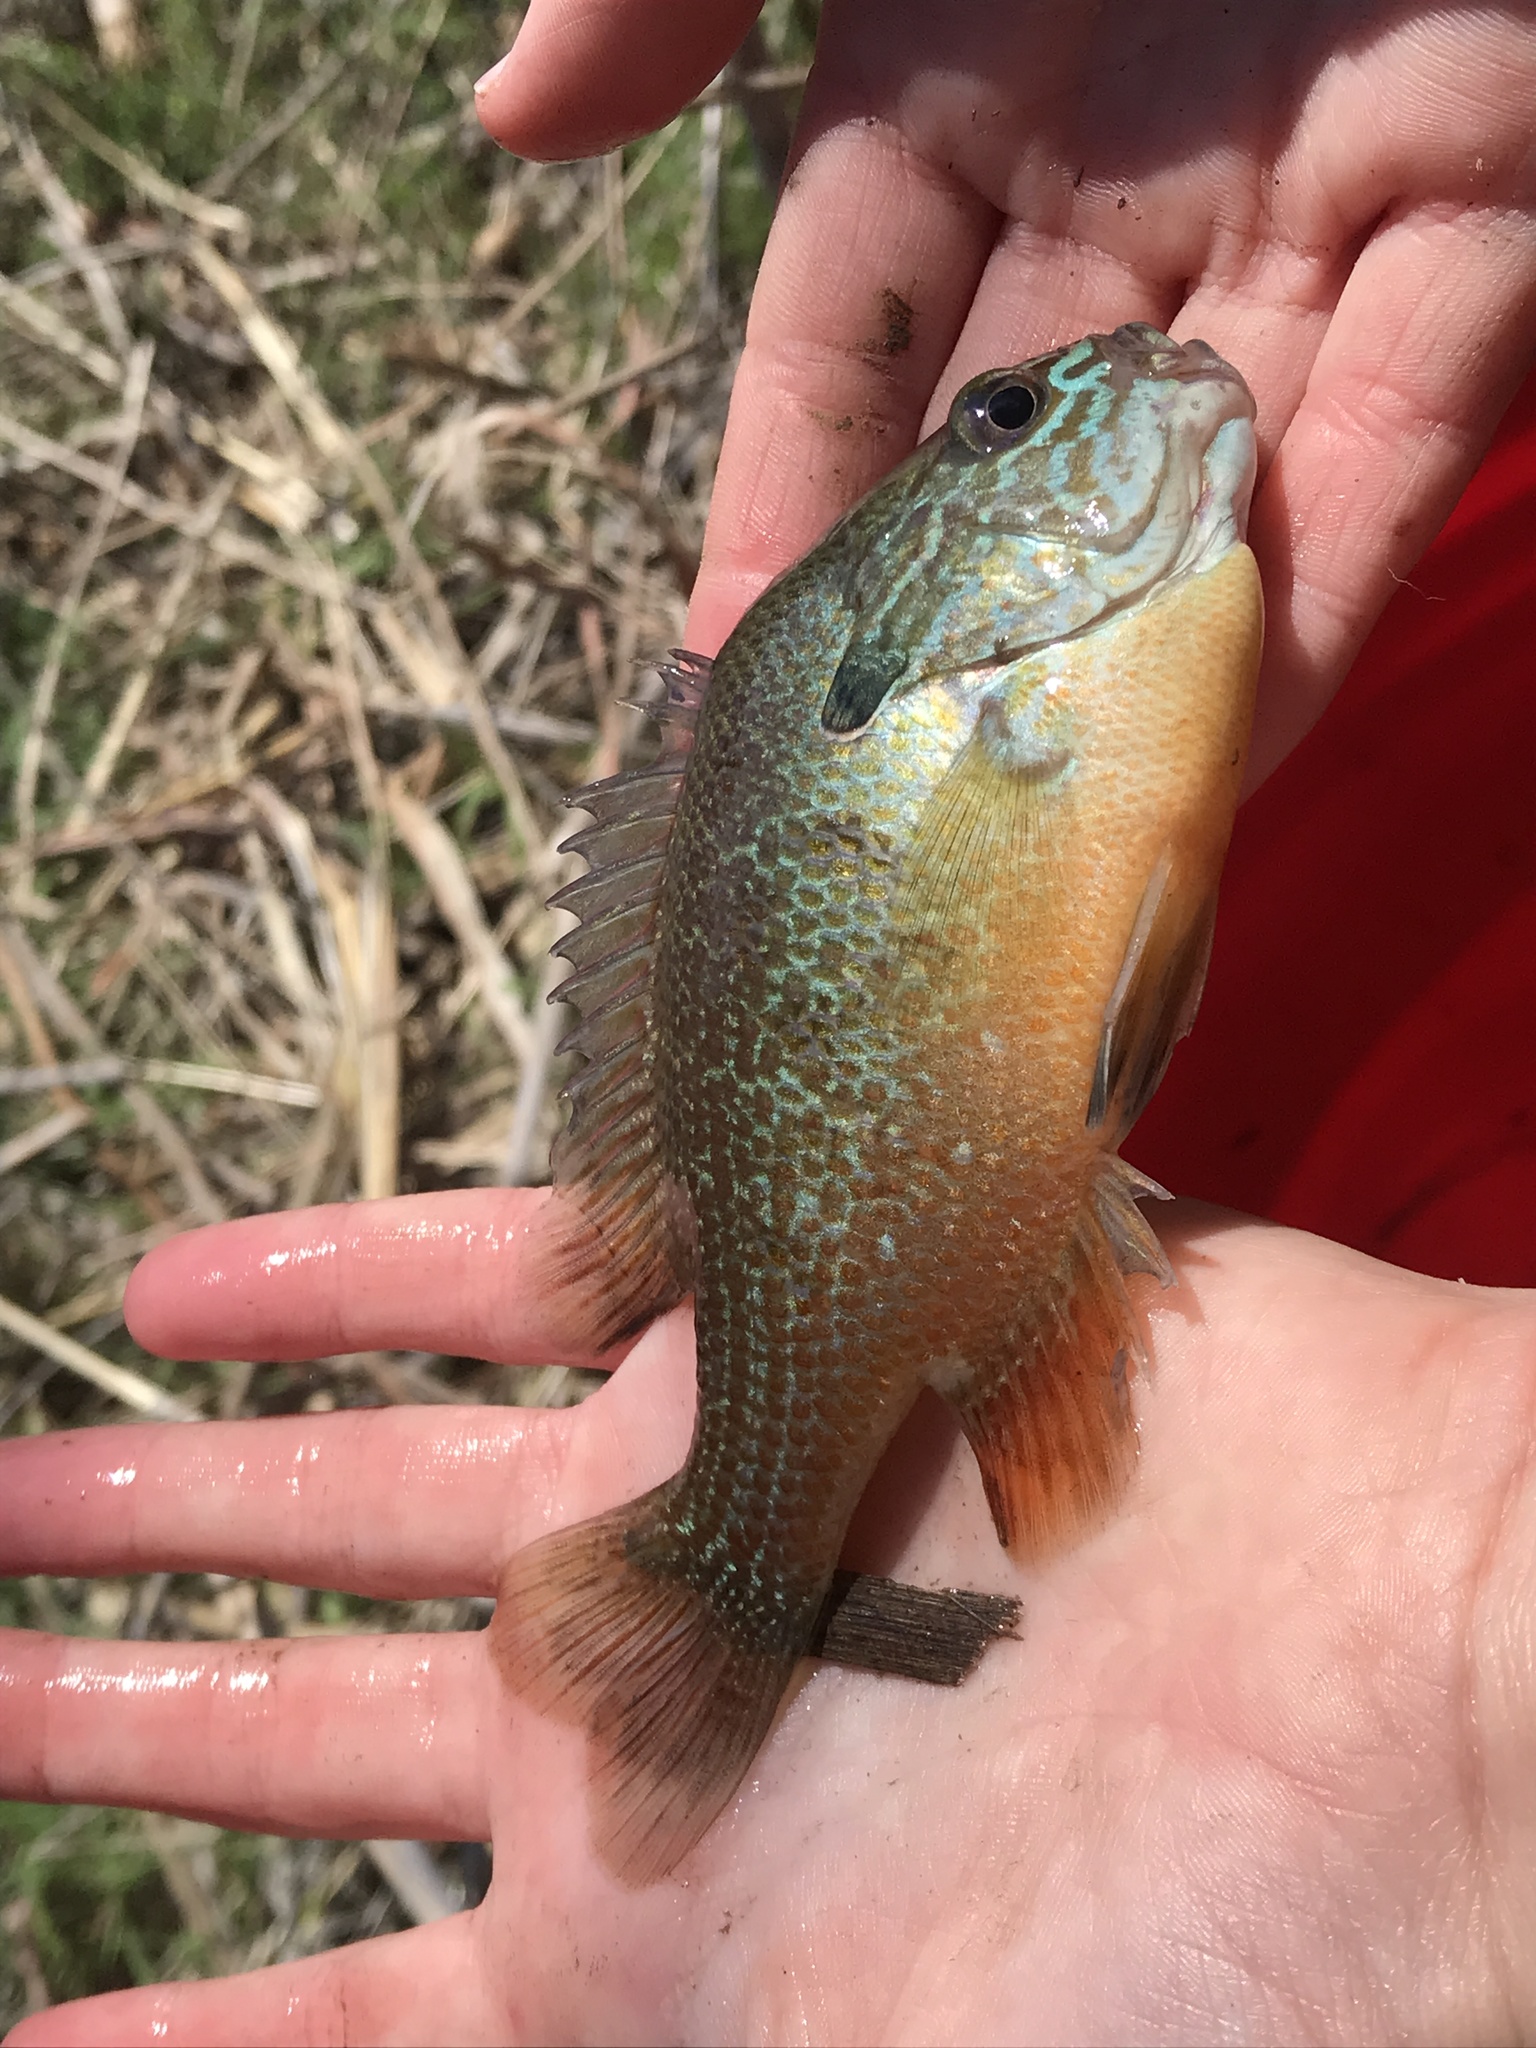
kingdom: Animalia
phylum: Chordata
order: Perciformes
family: Centrarchidae
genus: Lepomis
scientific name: Lepomis megalotis
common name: Longear sunfish
